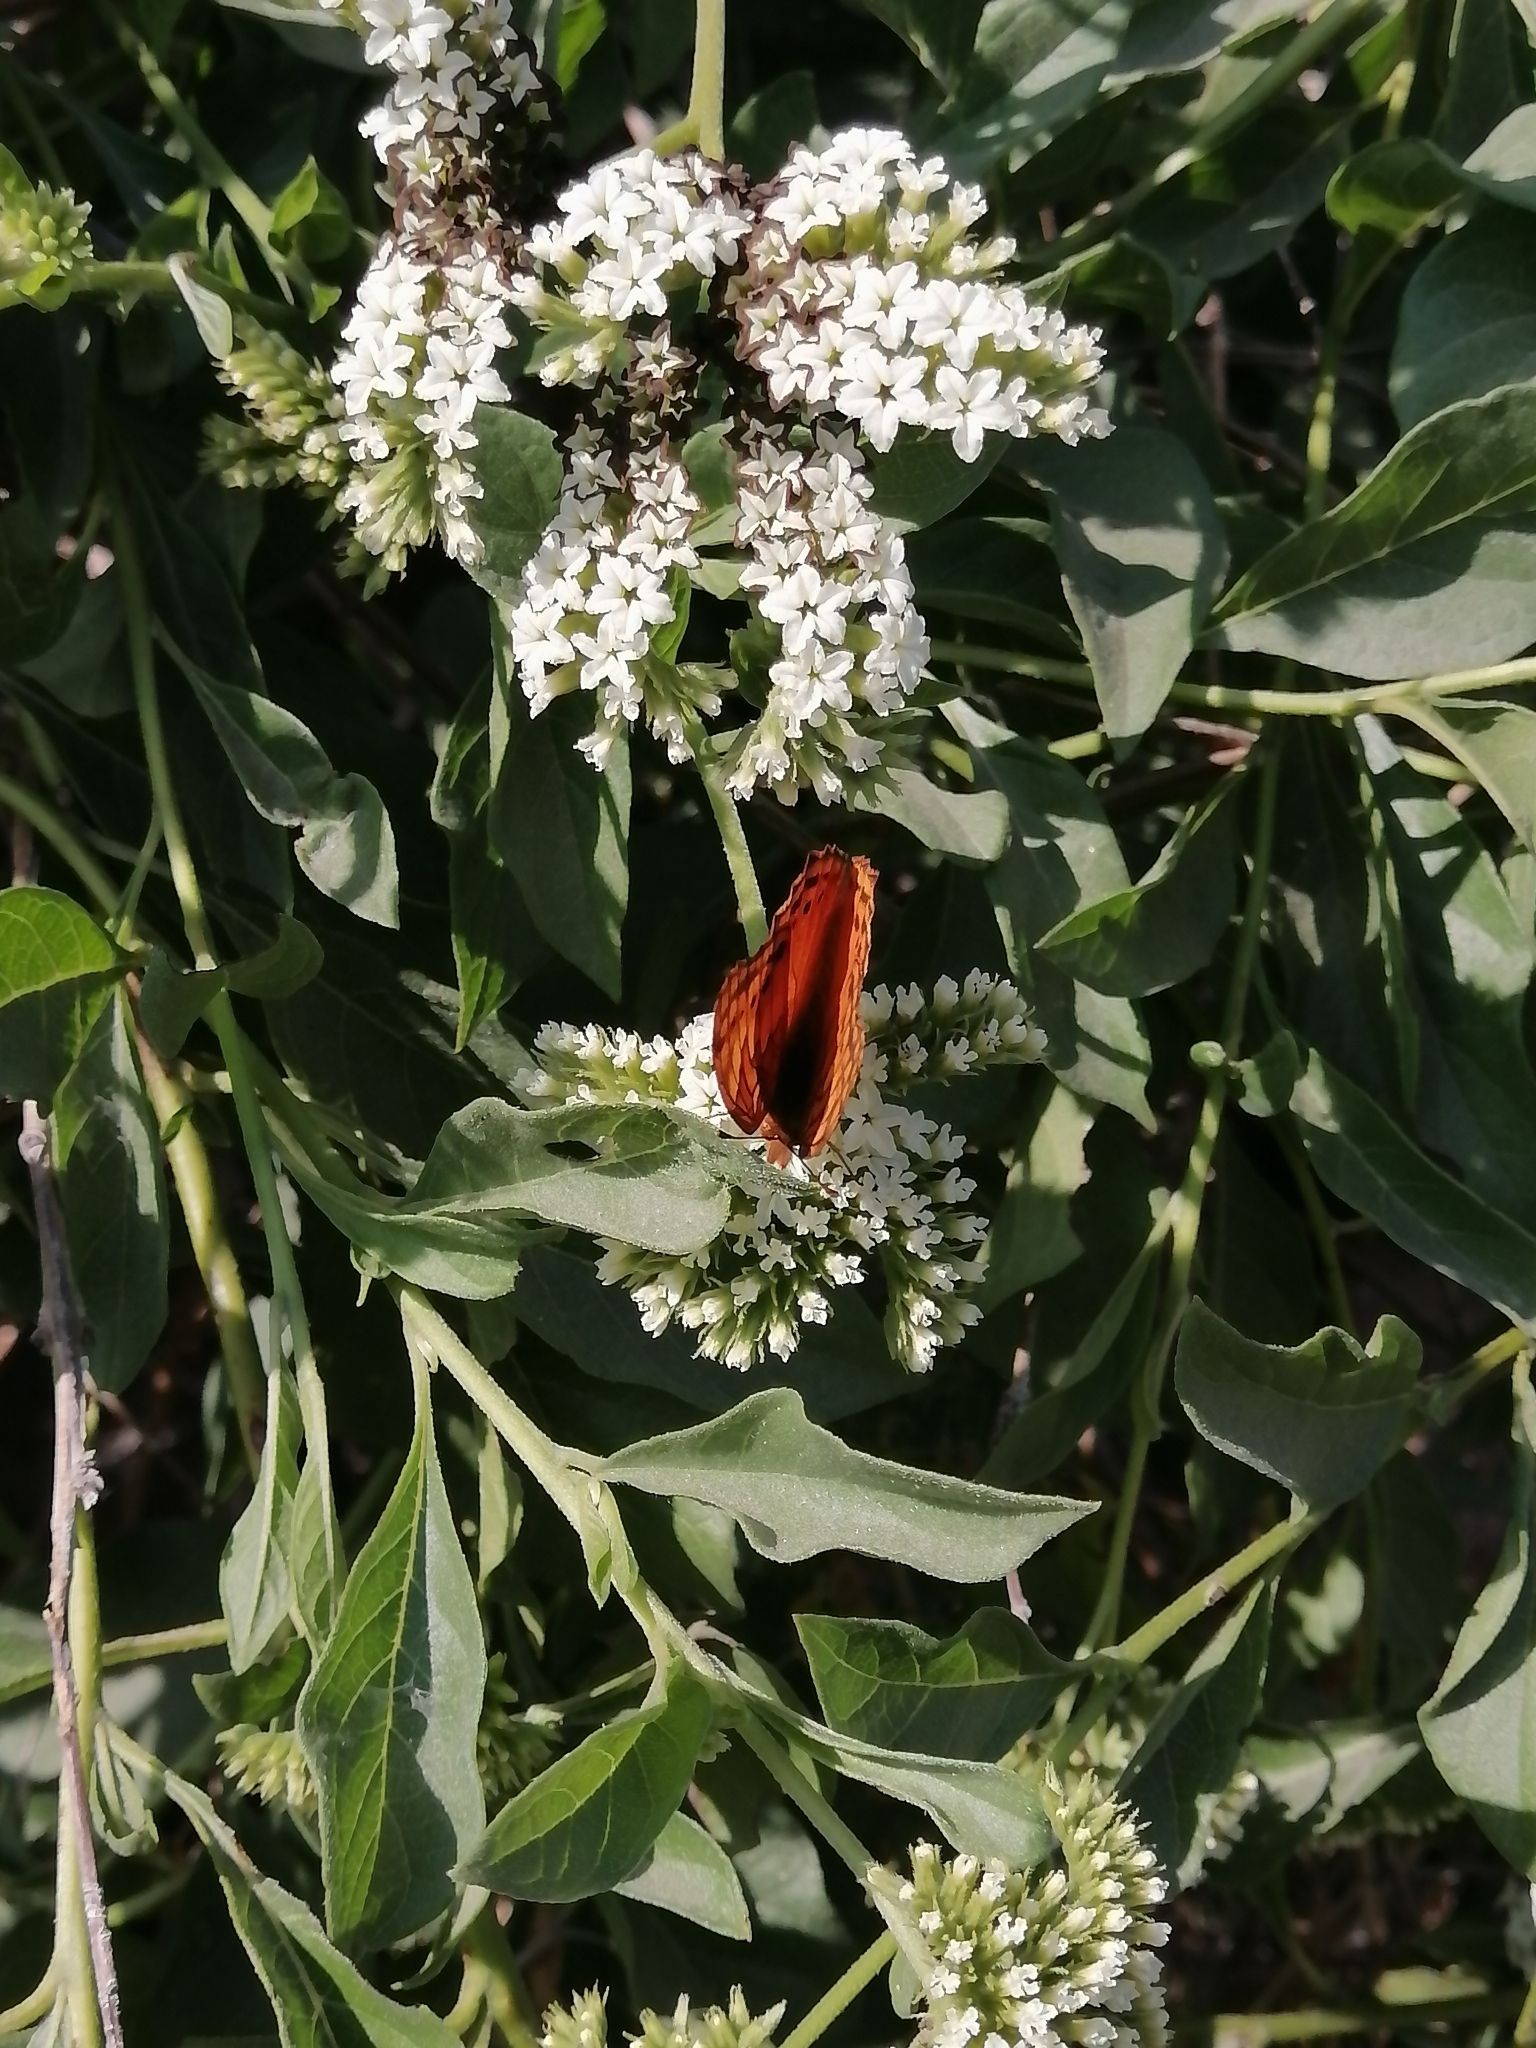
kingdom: Animalia
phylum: Arthropoda
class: Insecta
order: Lepidoptera
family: Nymphalidae
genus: Euptoieta
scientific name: Euptoieta hegesia
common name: Mexican fritillary
